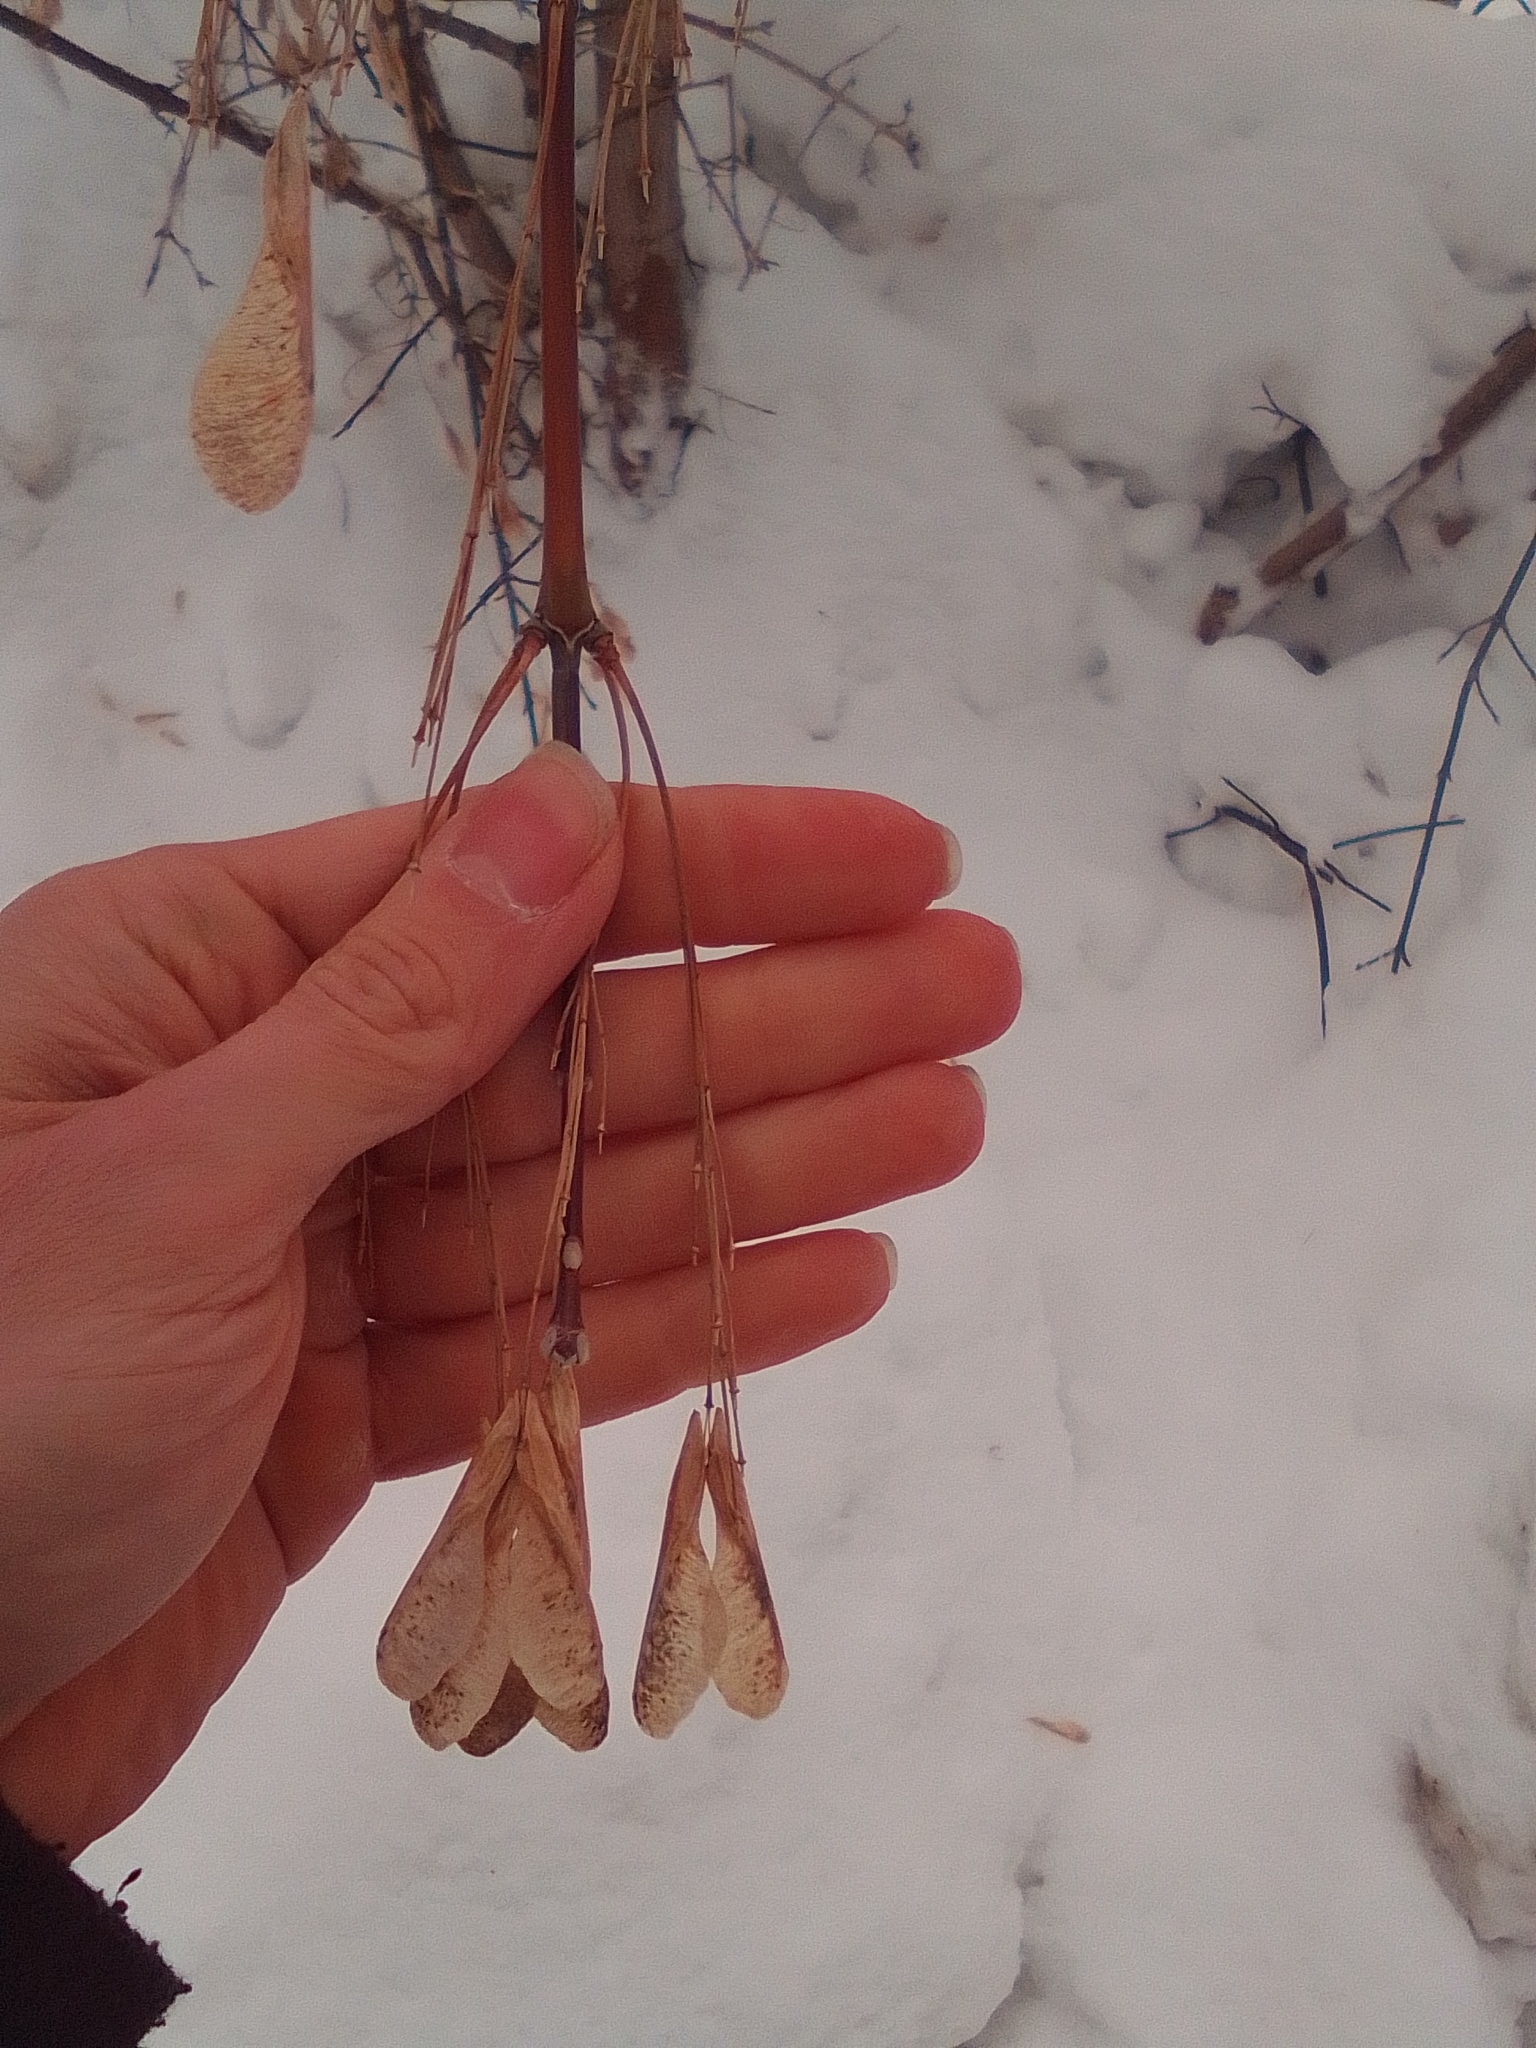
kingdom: Plantae
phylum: Tracheophyta
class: Magnoliopsida
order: Sapindales
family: Sapindaceae
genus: Acer
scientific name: Acer negundo
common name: Ashleaf maple
